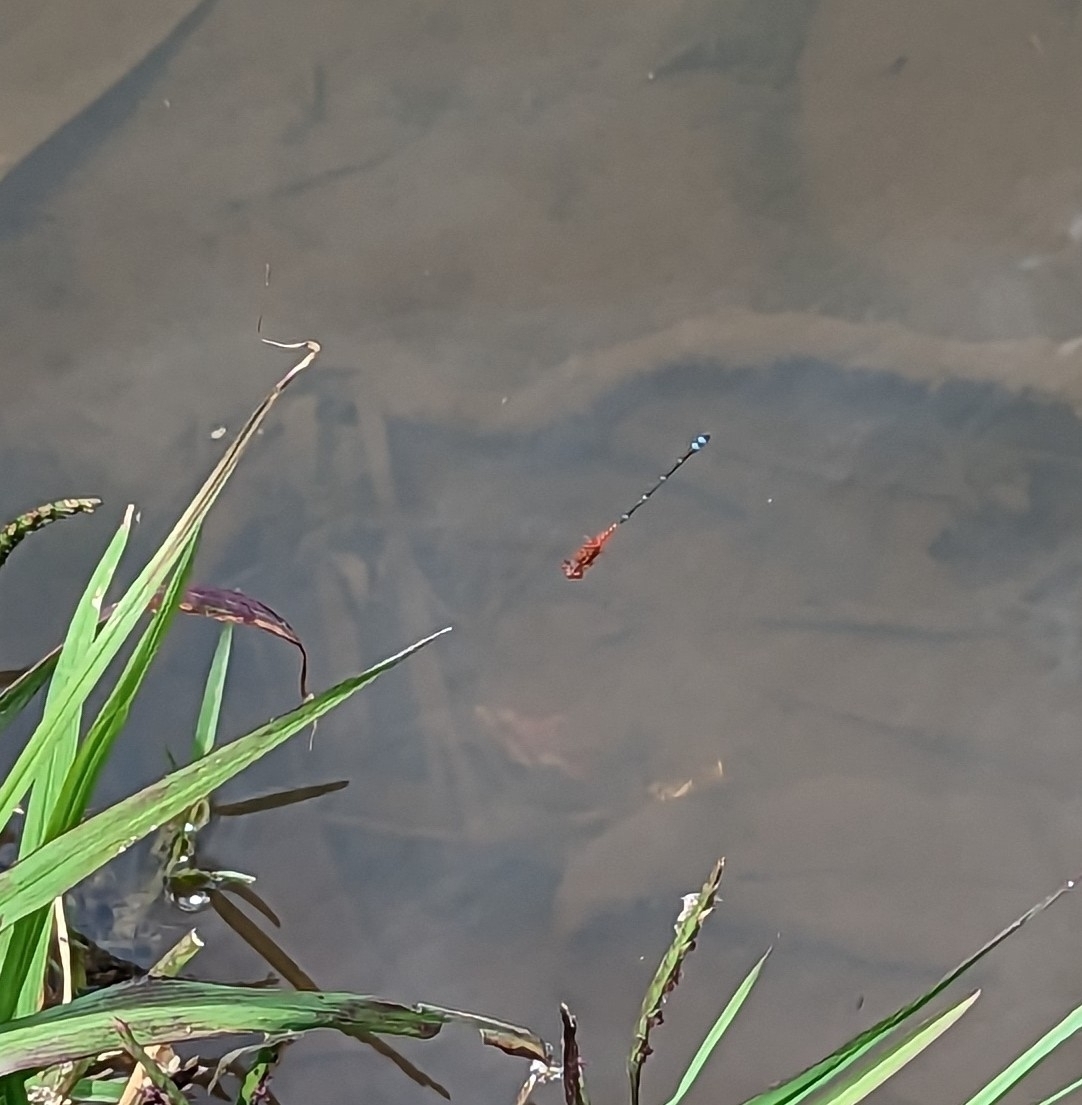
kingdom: Animalia
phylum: Arthropoda
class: Insecta
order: Odonata
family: Coenagrionidae
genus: Xanthagrion
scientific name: Xanthagrion erythroneurum
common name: Red and blue damsel
